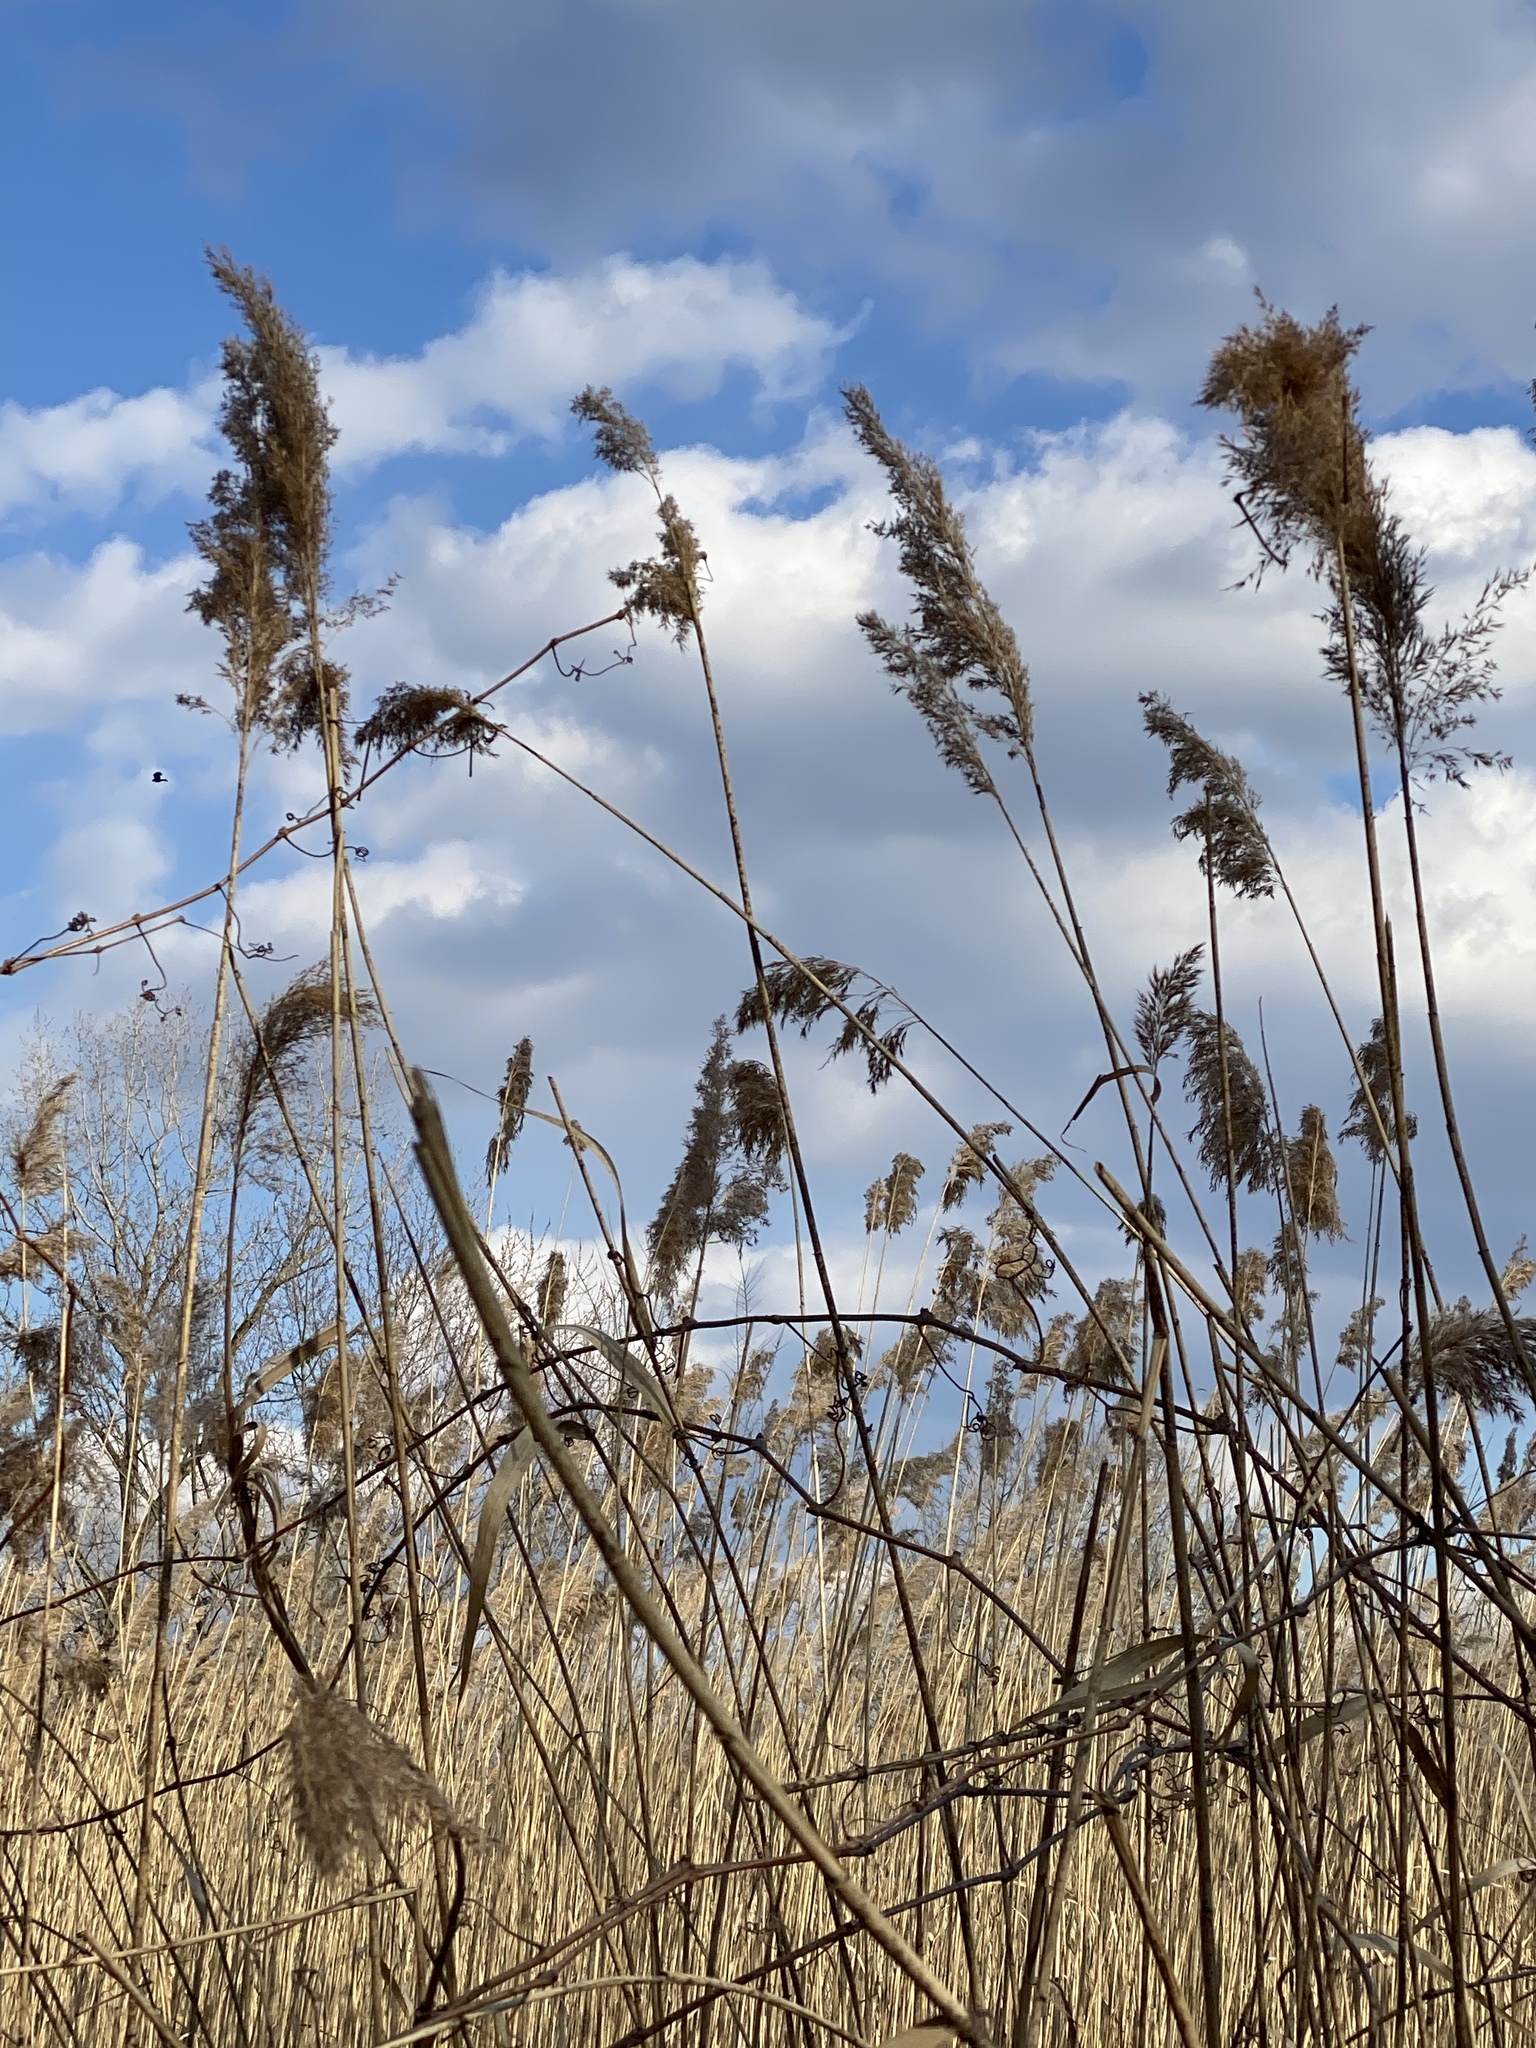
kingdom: Plantae
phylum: Tracheophyta
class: Liliopsida
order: Poales
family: Poaceae
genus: Phragmites
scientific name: Phragmites australis
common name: Common reed
